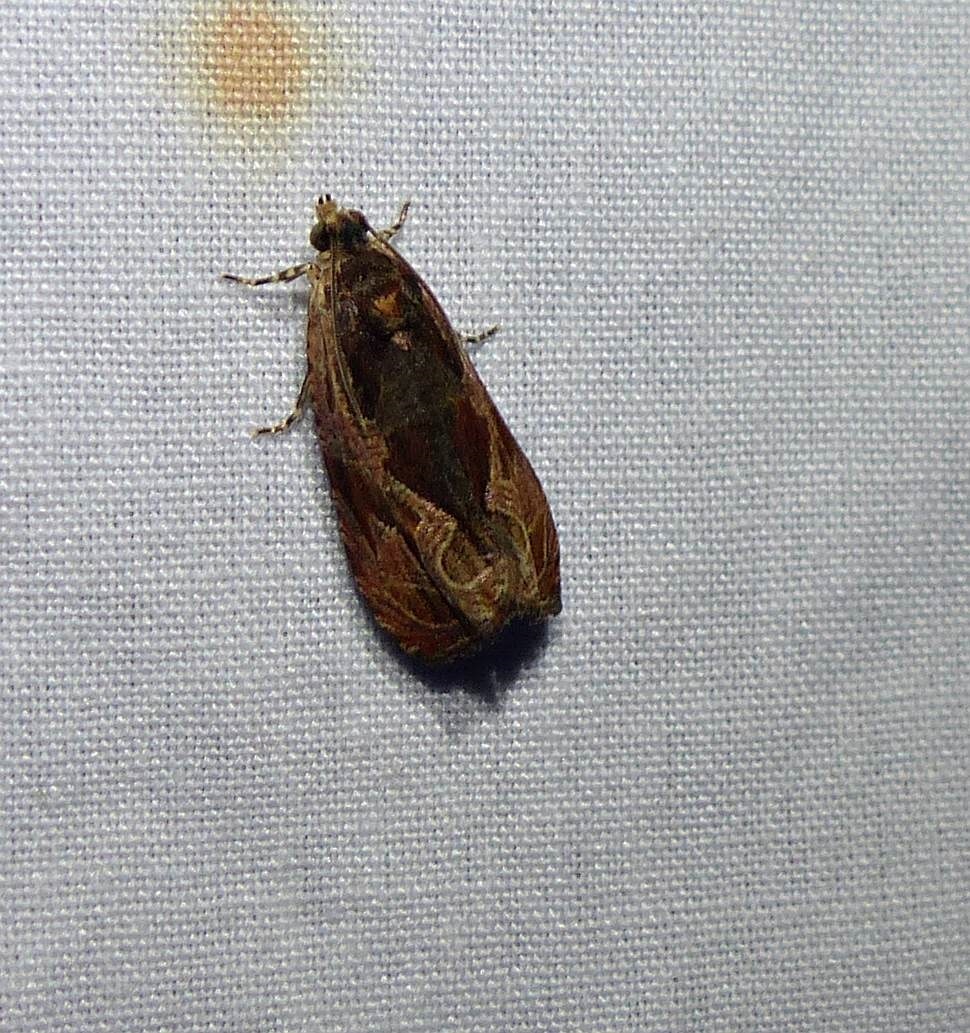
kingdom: Animalia
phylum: Arthropoda
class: Insecta
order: Lepidoptera
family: Tortricidae
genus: Olethreutes
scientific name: Olethreutes nigranum
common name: Variable nigranum moth
